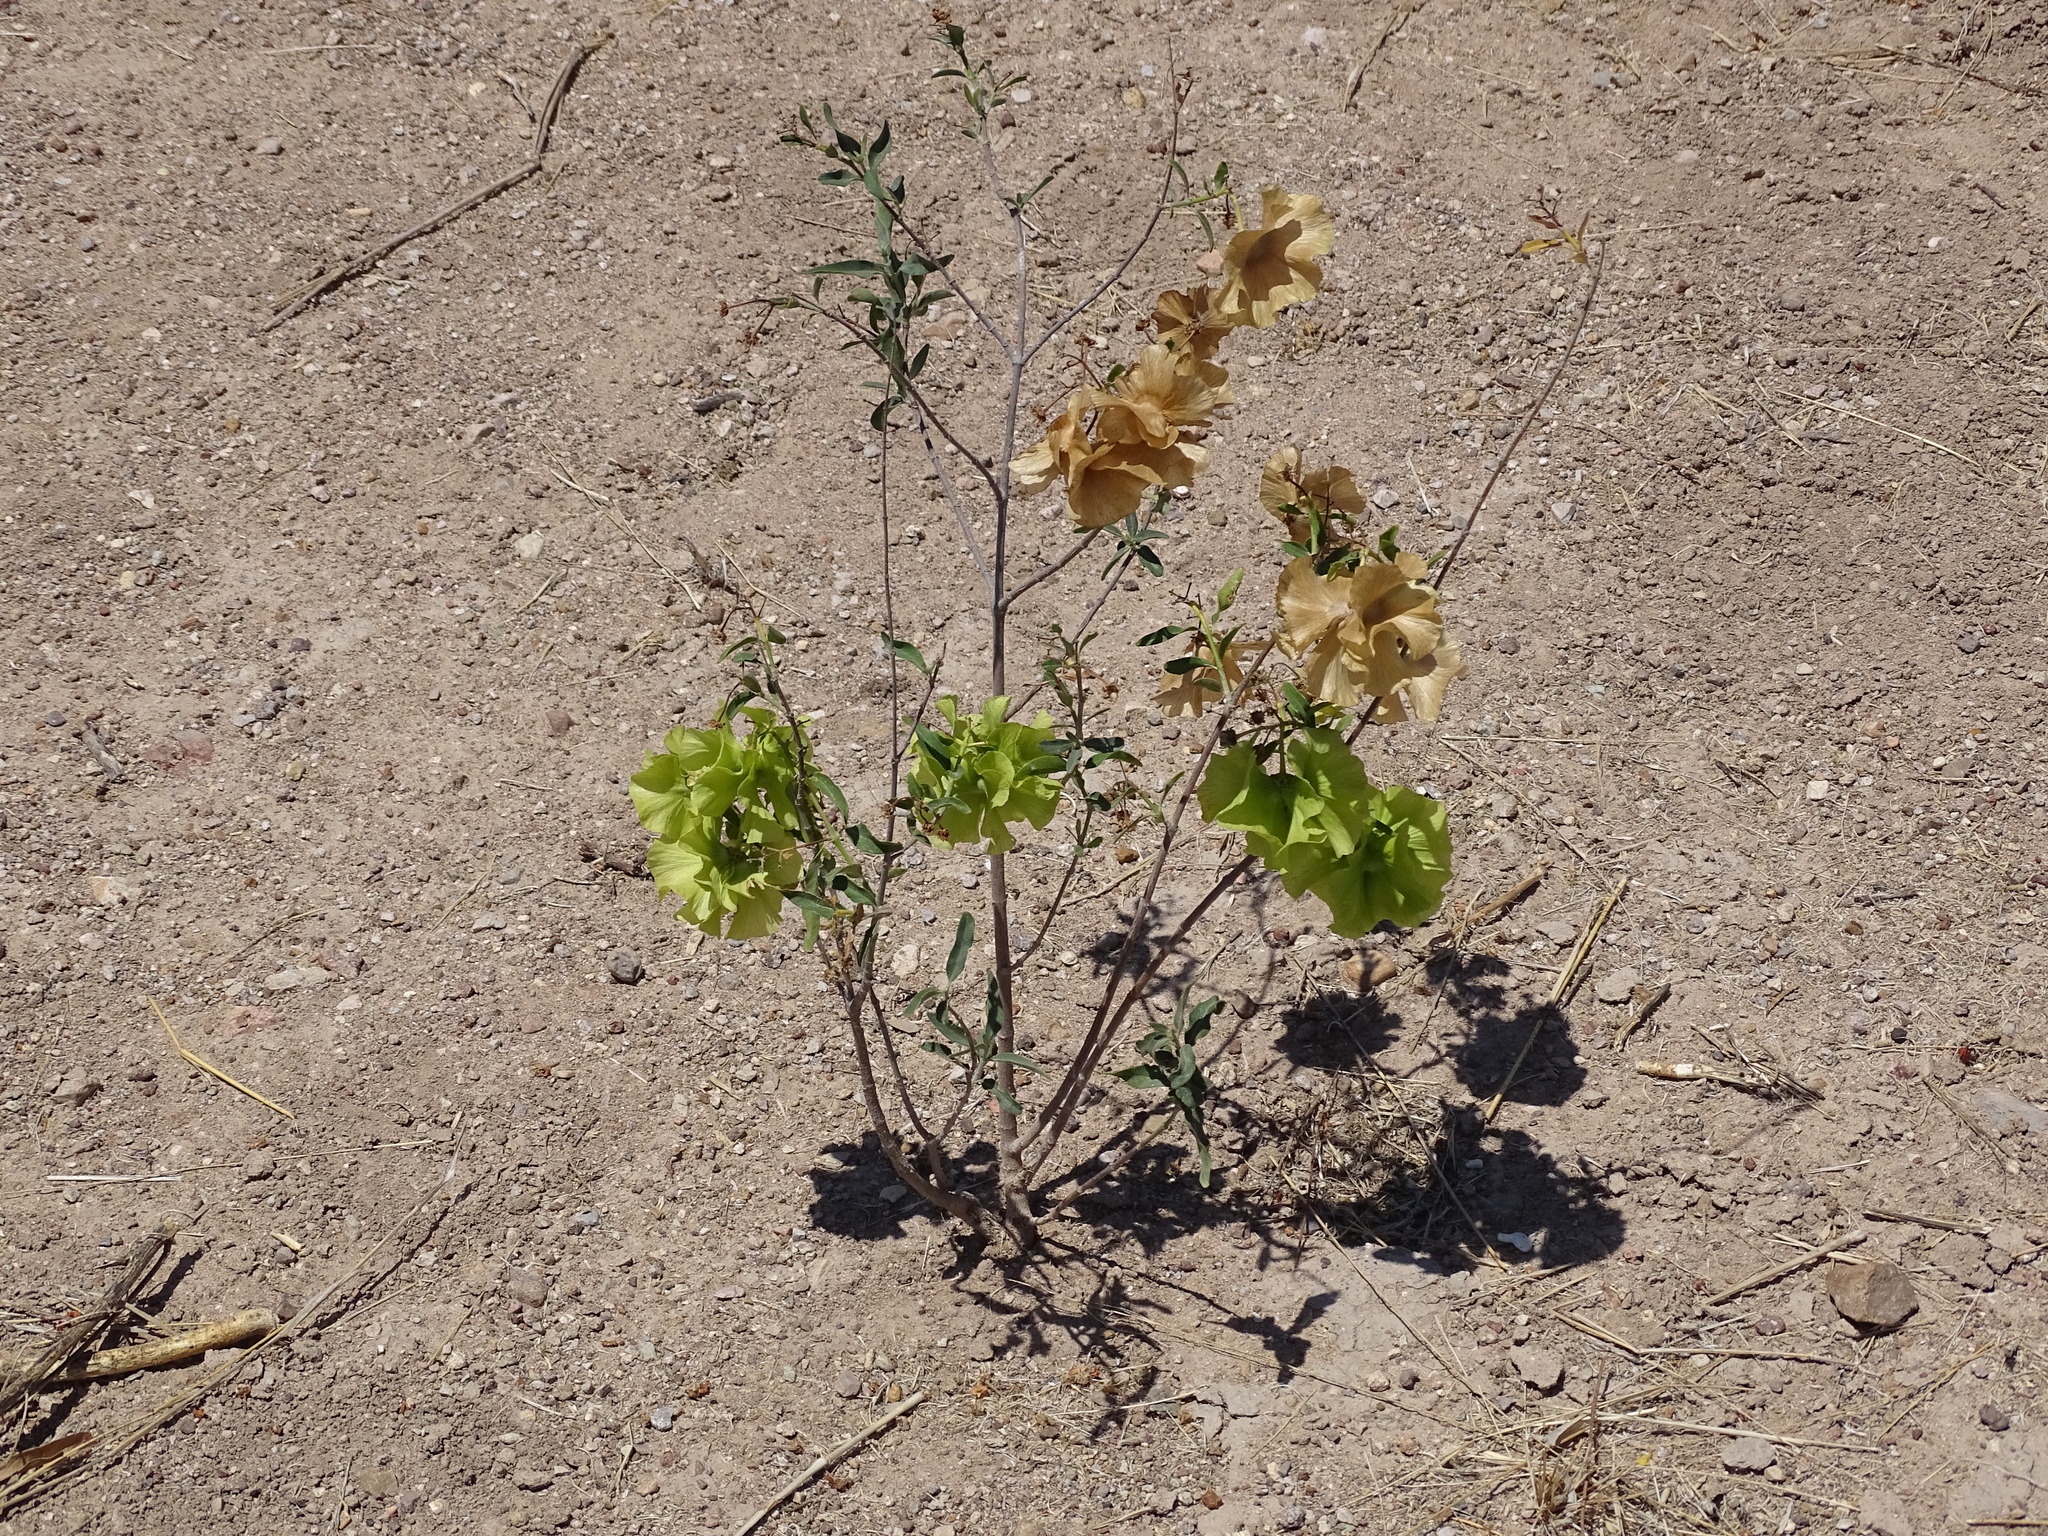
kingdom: Plantae
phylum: Tracheophyta
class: Magnoliopsida
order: Malpighiales
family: Malpighiaceae
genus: Callaeum
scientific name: Callaeum macropterum
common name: Mexican butterfly-vine
